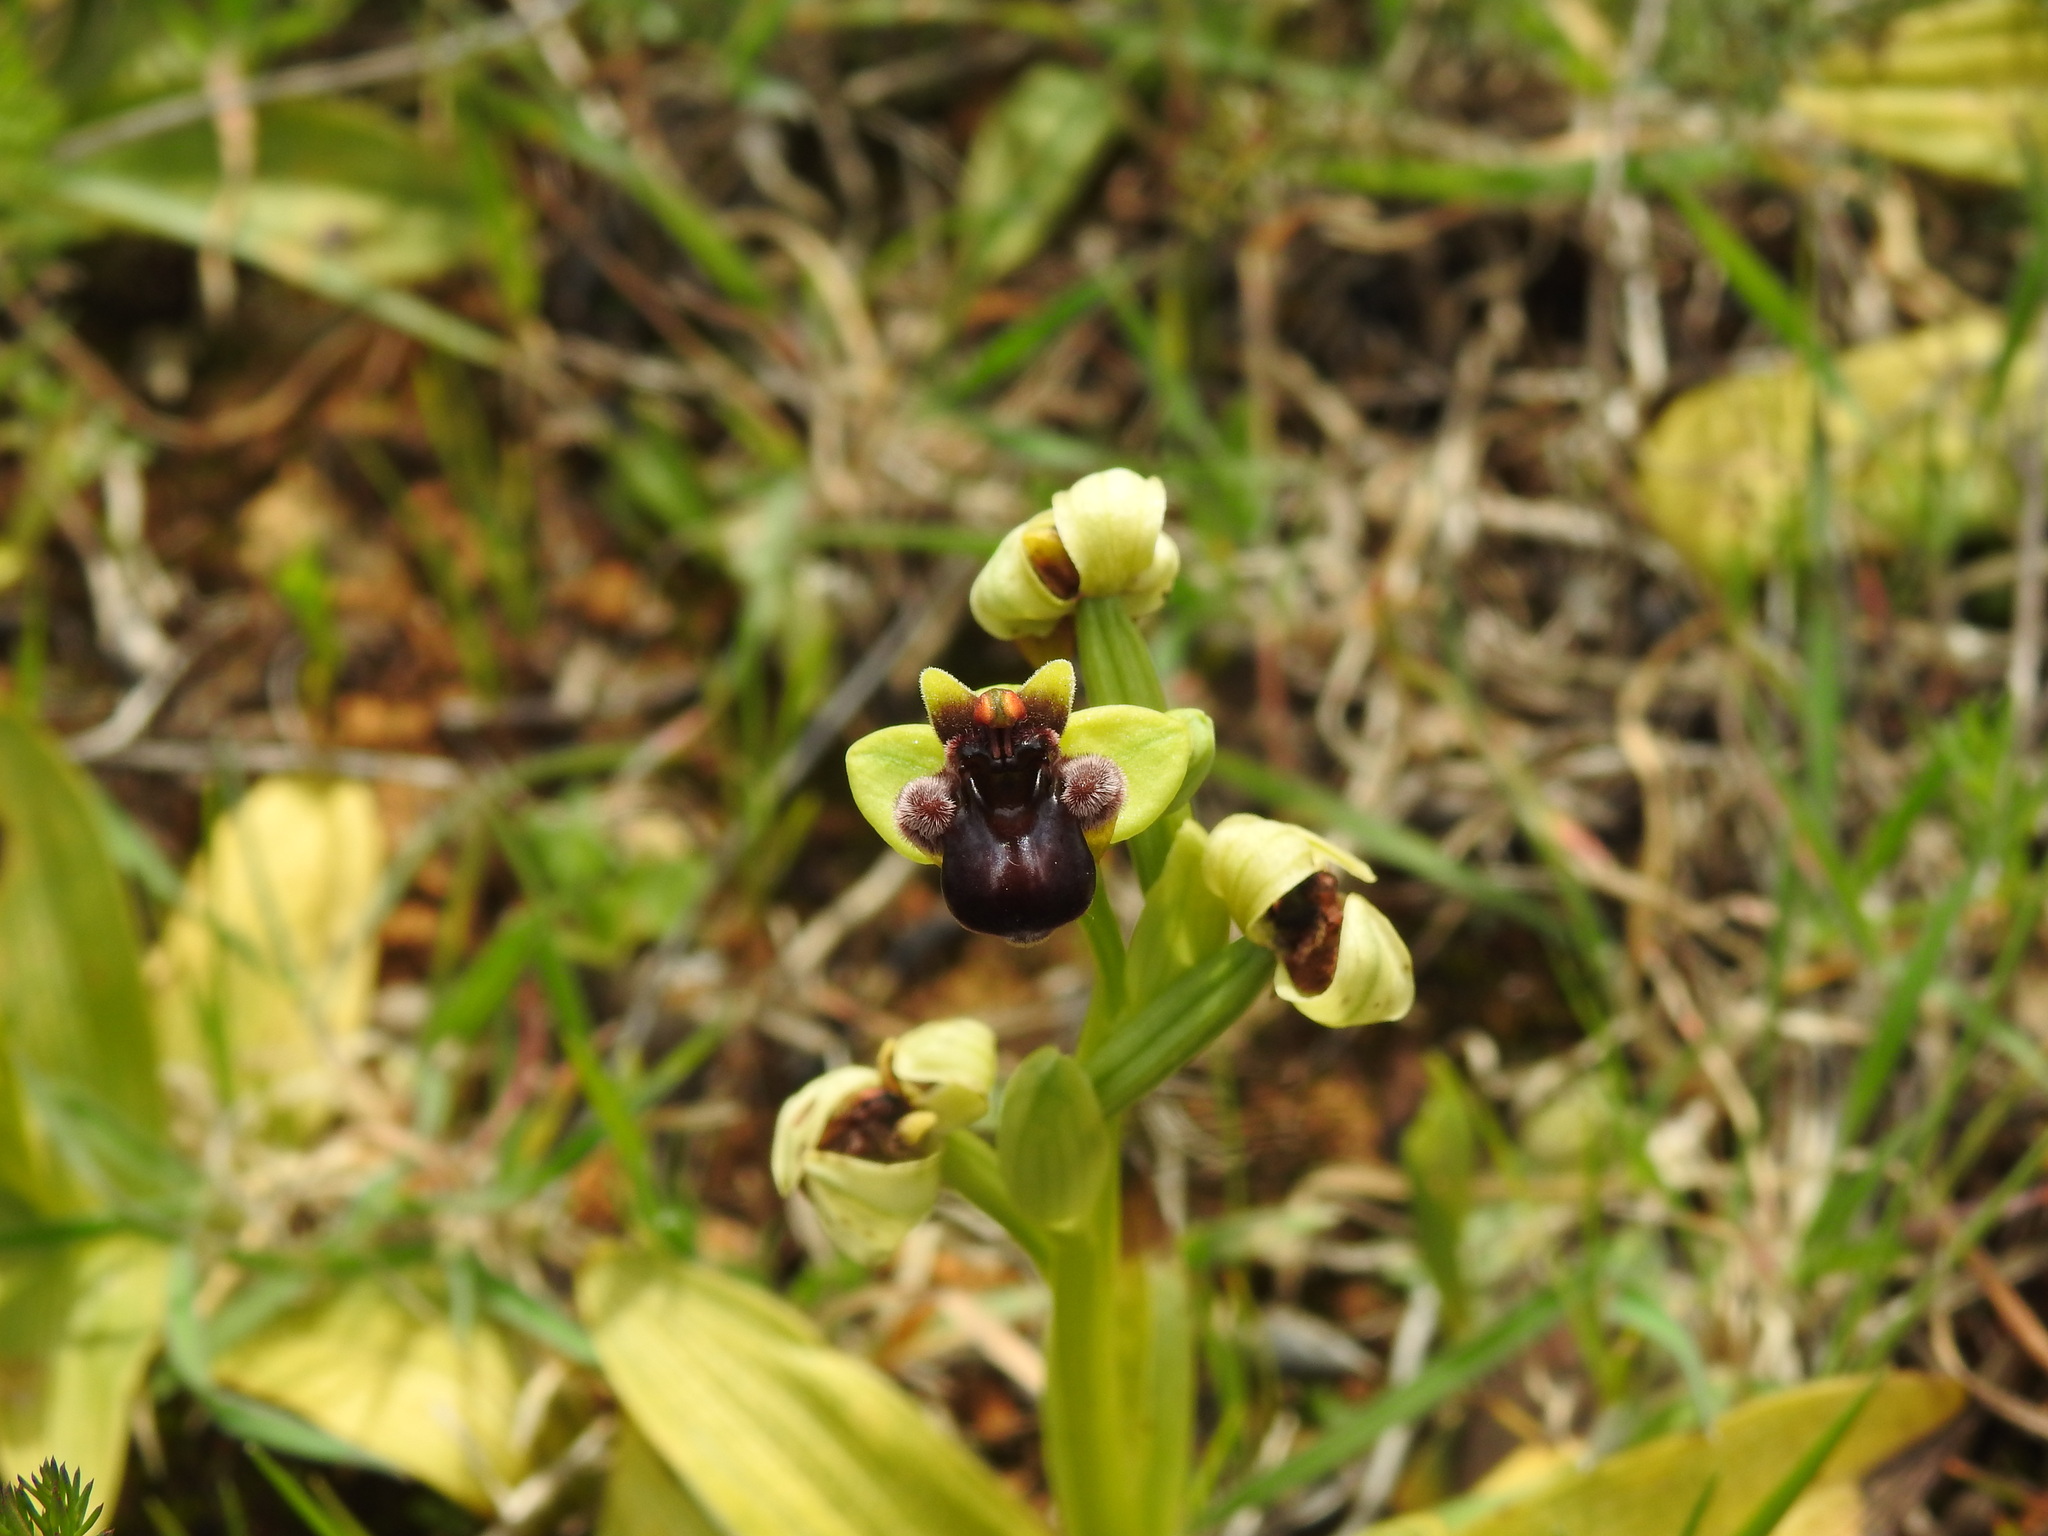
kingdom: Plantae
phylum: Tracheophyta
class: Liliopsida
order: Asparagales
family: Orchidaceae
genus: Ophrys
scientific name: Ophrys bombyliflora
